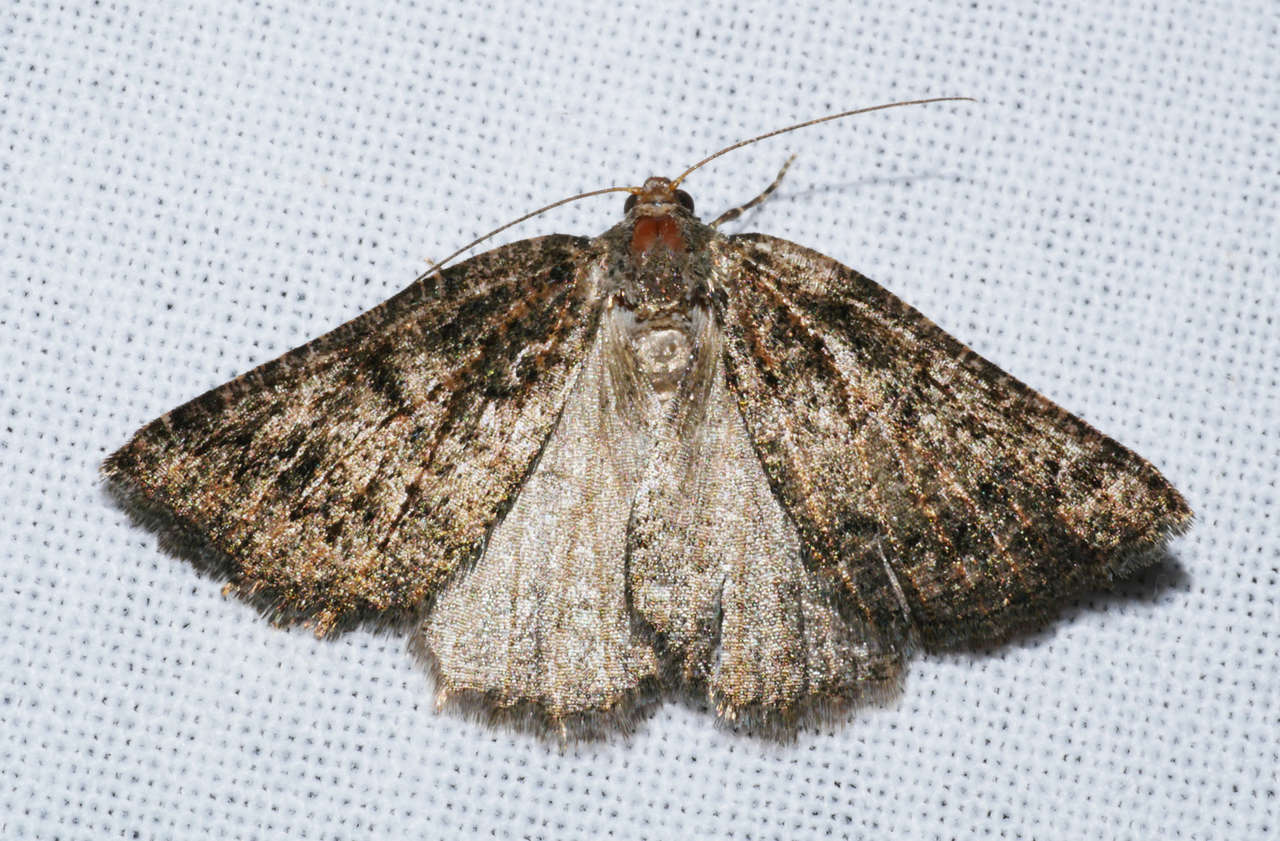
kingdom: Animalia
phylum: Arthropoda
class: Insecta
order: Lepidoptera
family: Geometridae
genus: Lackrana
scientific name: Lackrana carbo
